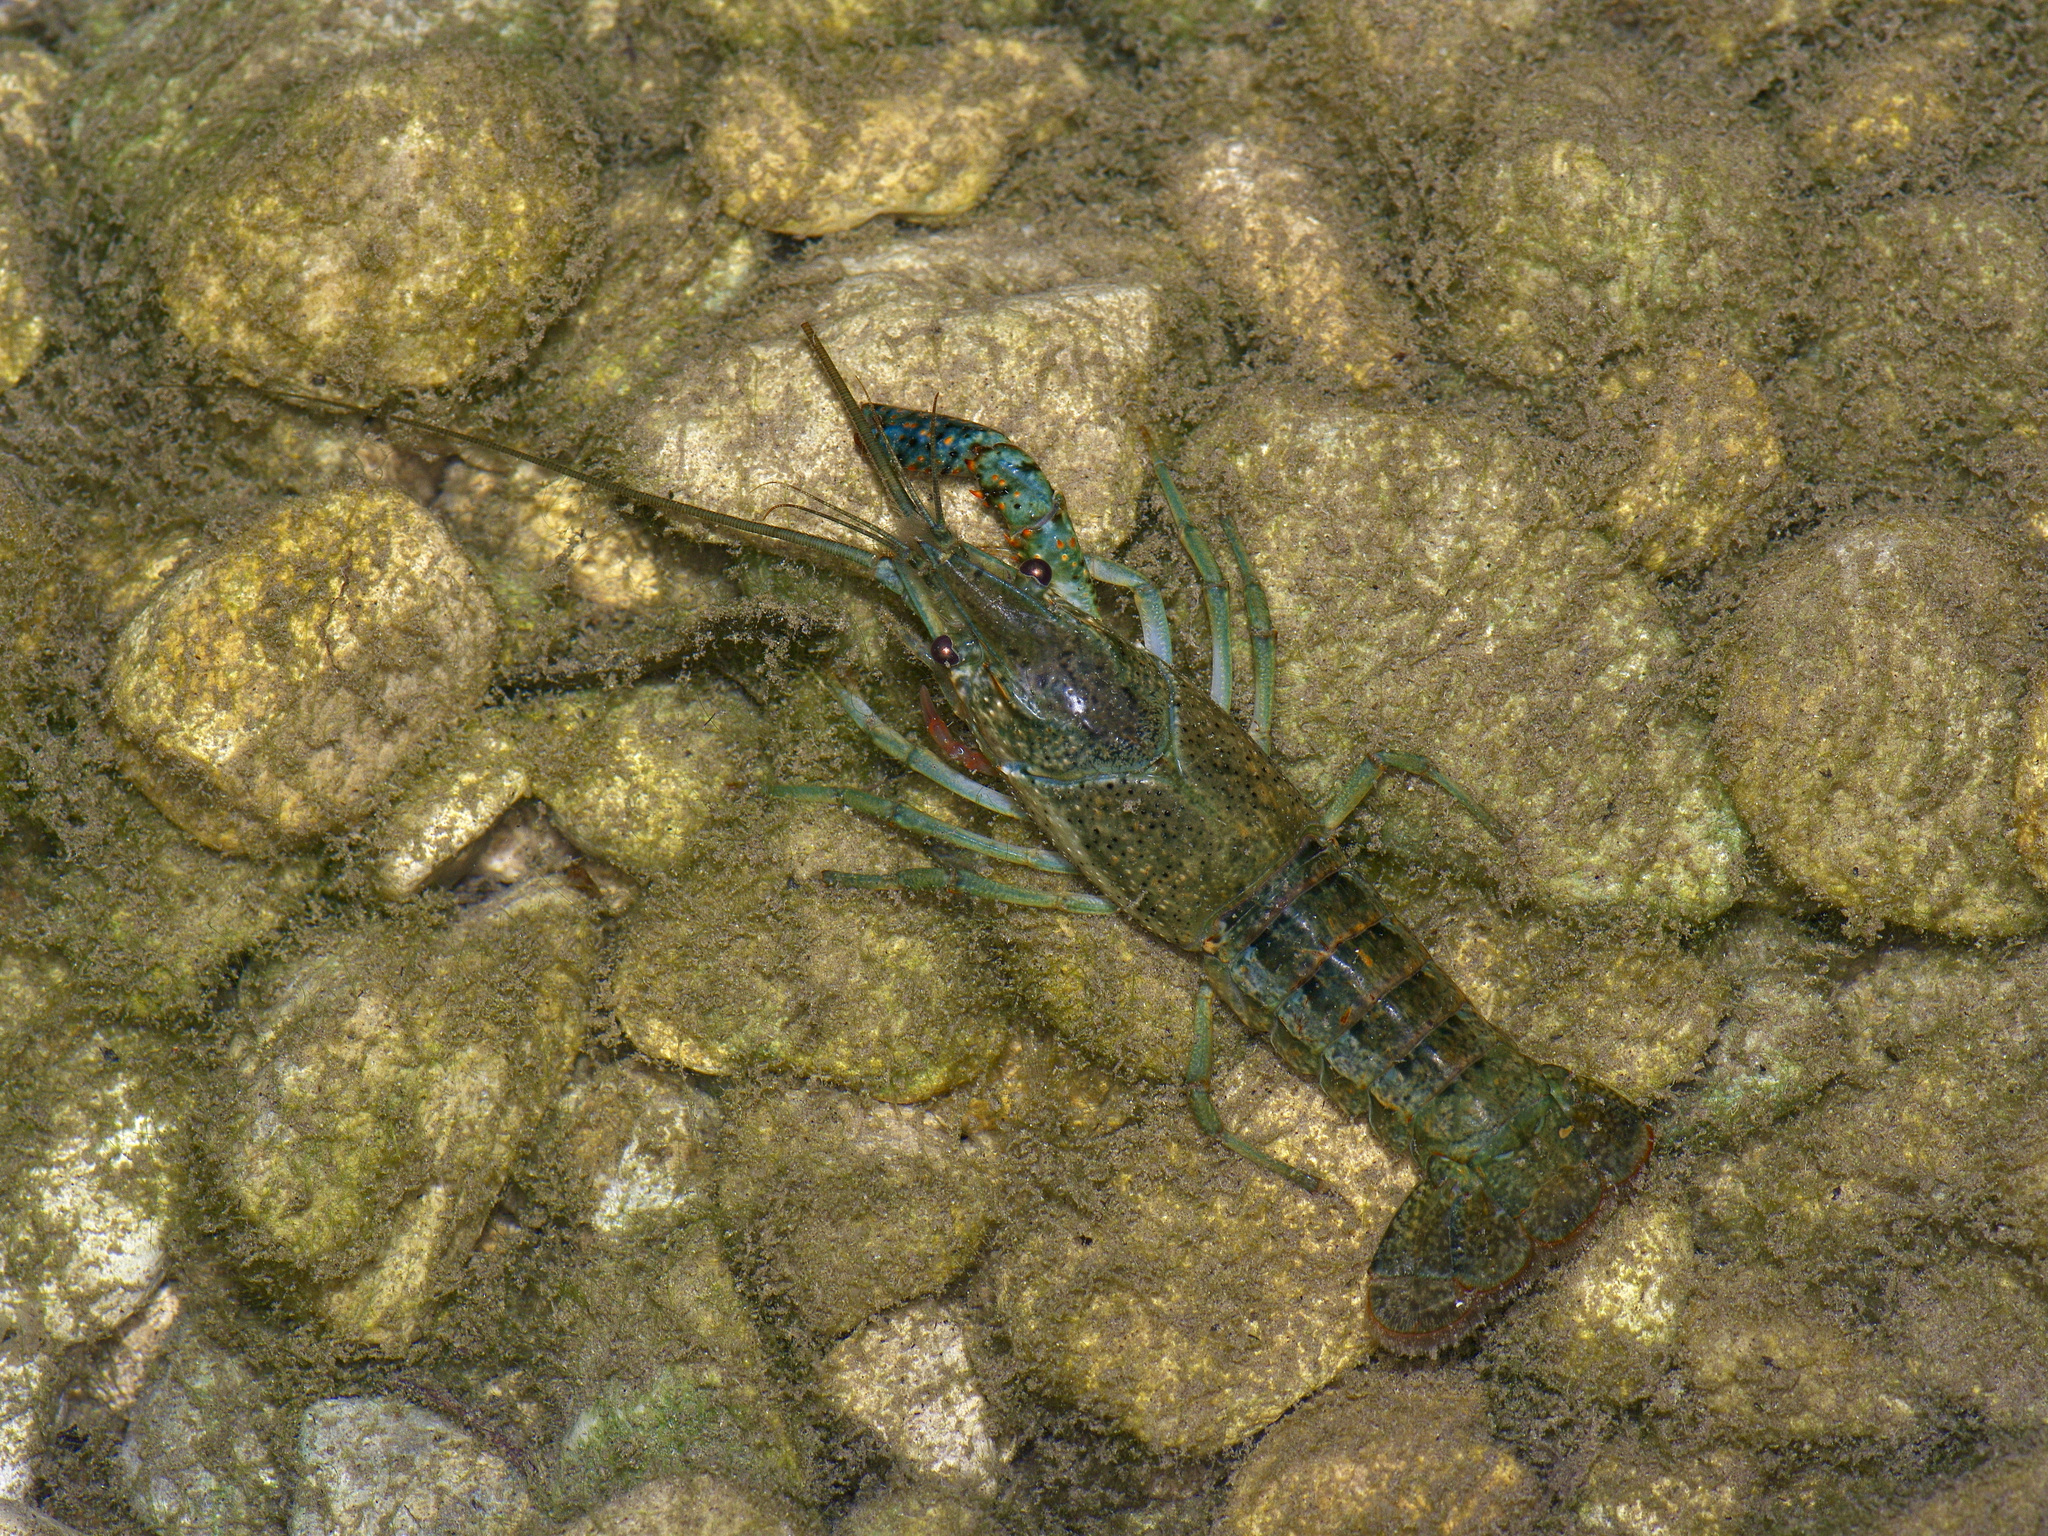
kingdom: Animalia
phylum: Arthropoda
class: Malacostraca
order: Decapoda
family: Cambaridae
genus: Procambarus
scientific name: Procambarus clarkii
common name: Red swamp crayfish
